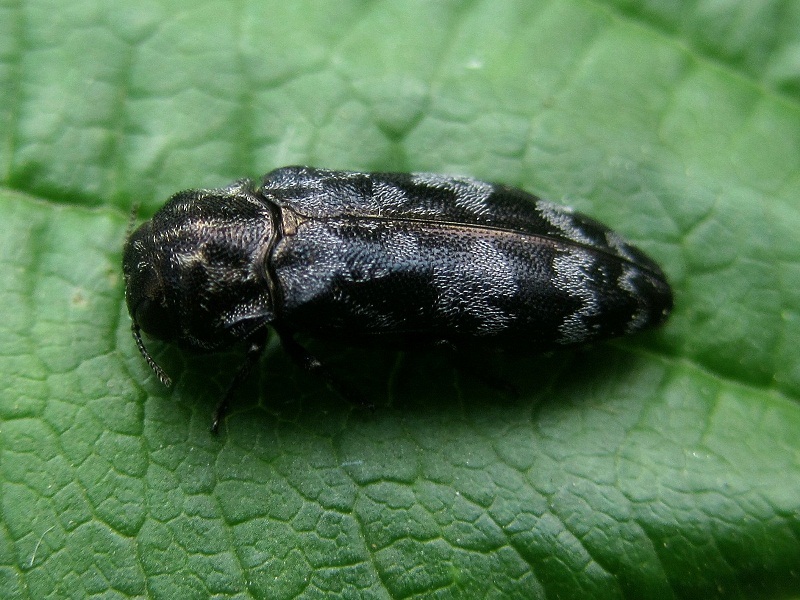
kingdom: Animalia
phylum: Arthropoda
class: Insecta
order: Coleoptera
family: Buprestidae
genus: Coraebus
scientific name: Coraebus rubi
